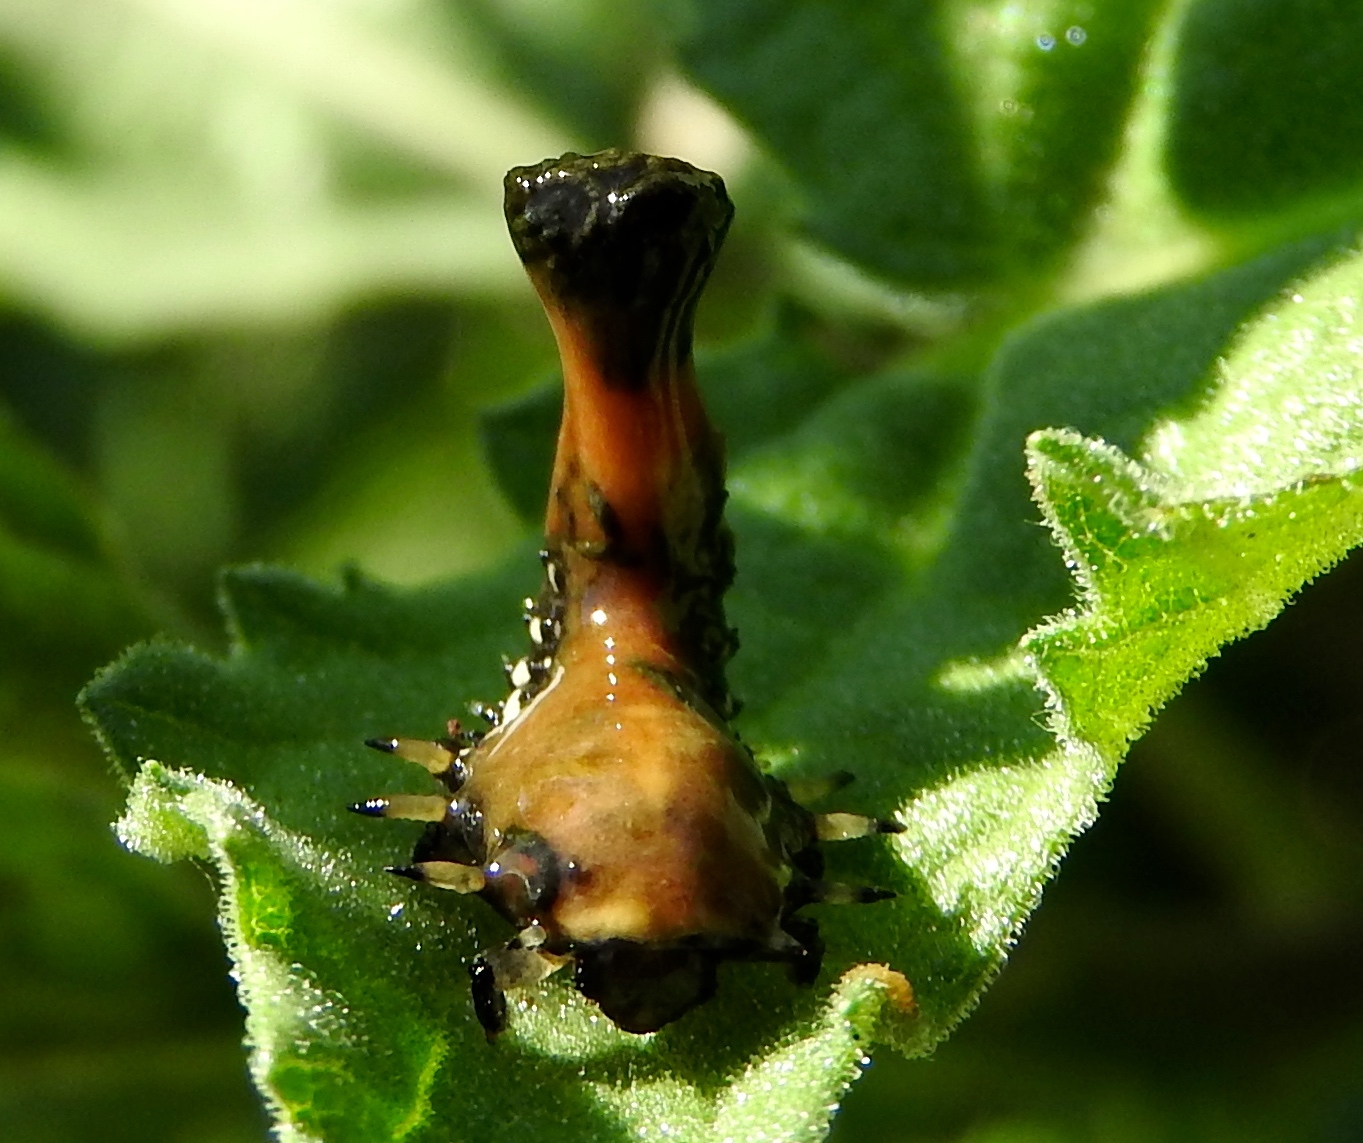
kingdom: Animalia
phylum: Arthropoda
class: Insecta
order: Coleoptera
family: Chrysomelidae
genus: Physonota
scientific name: Physonota arizonae
